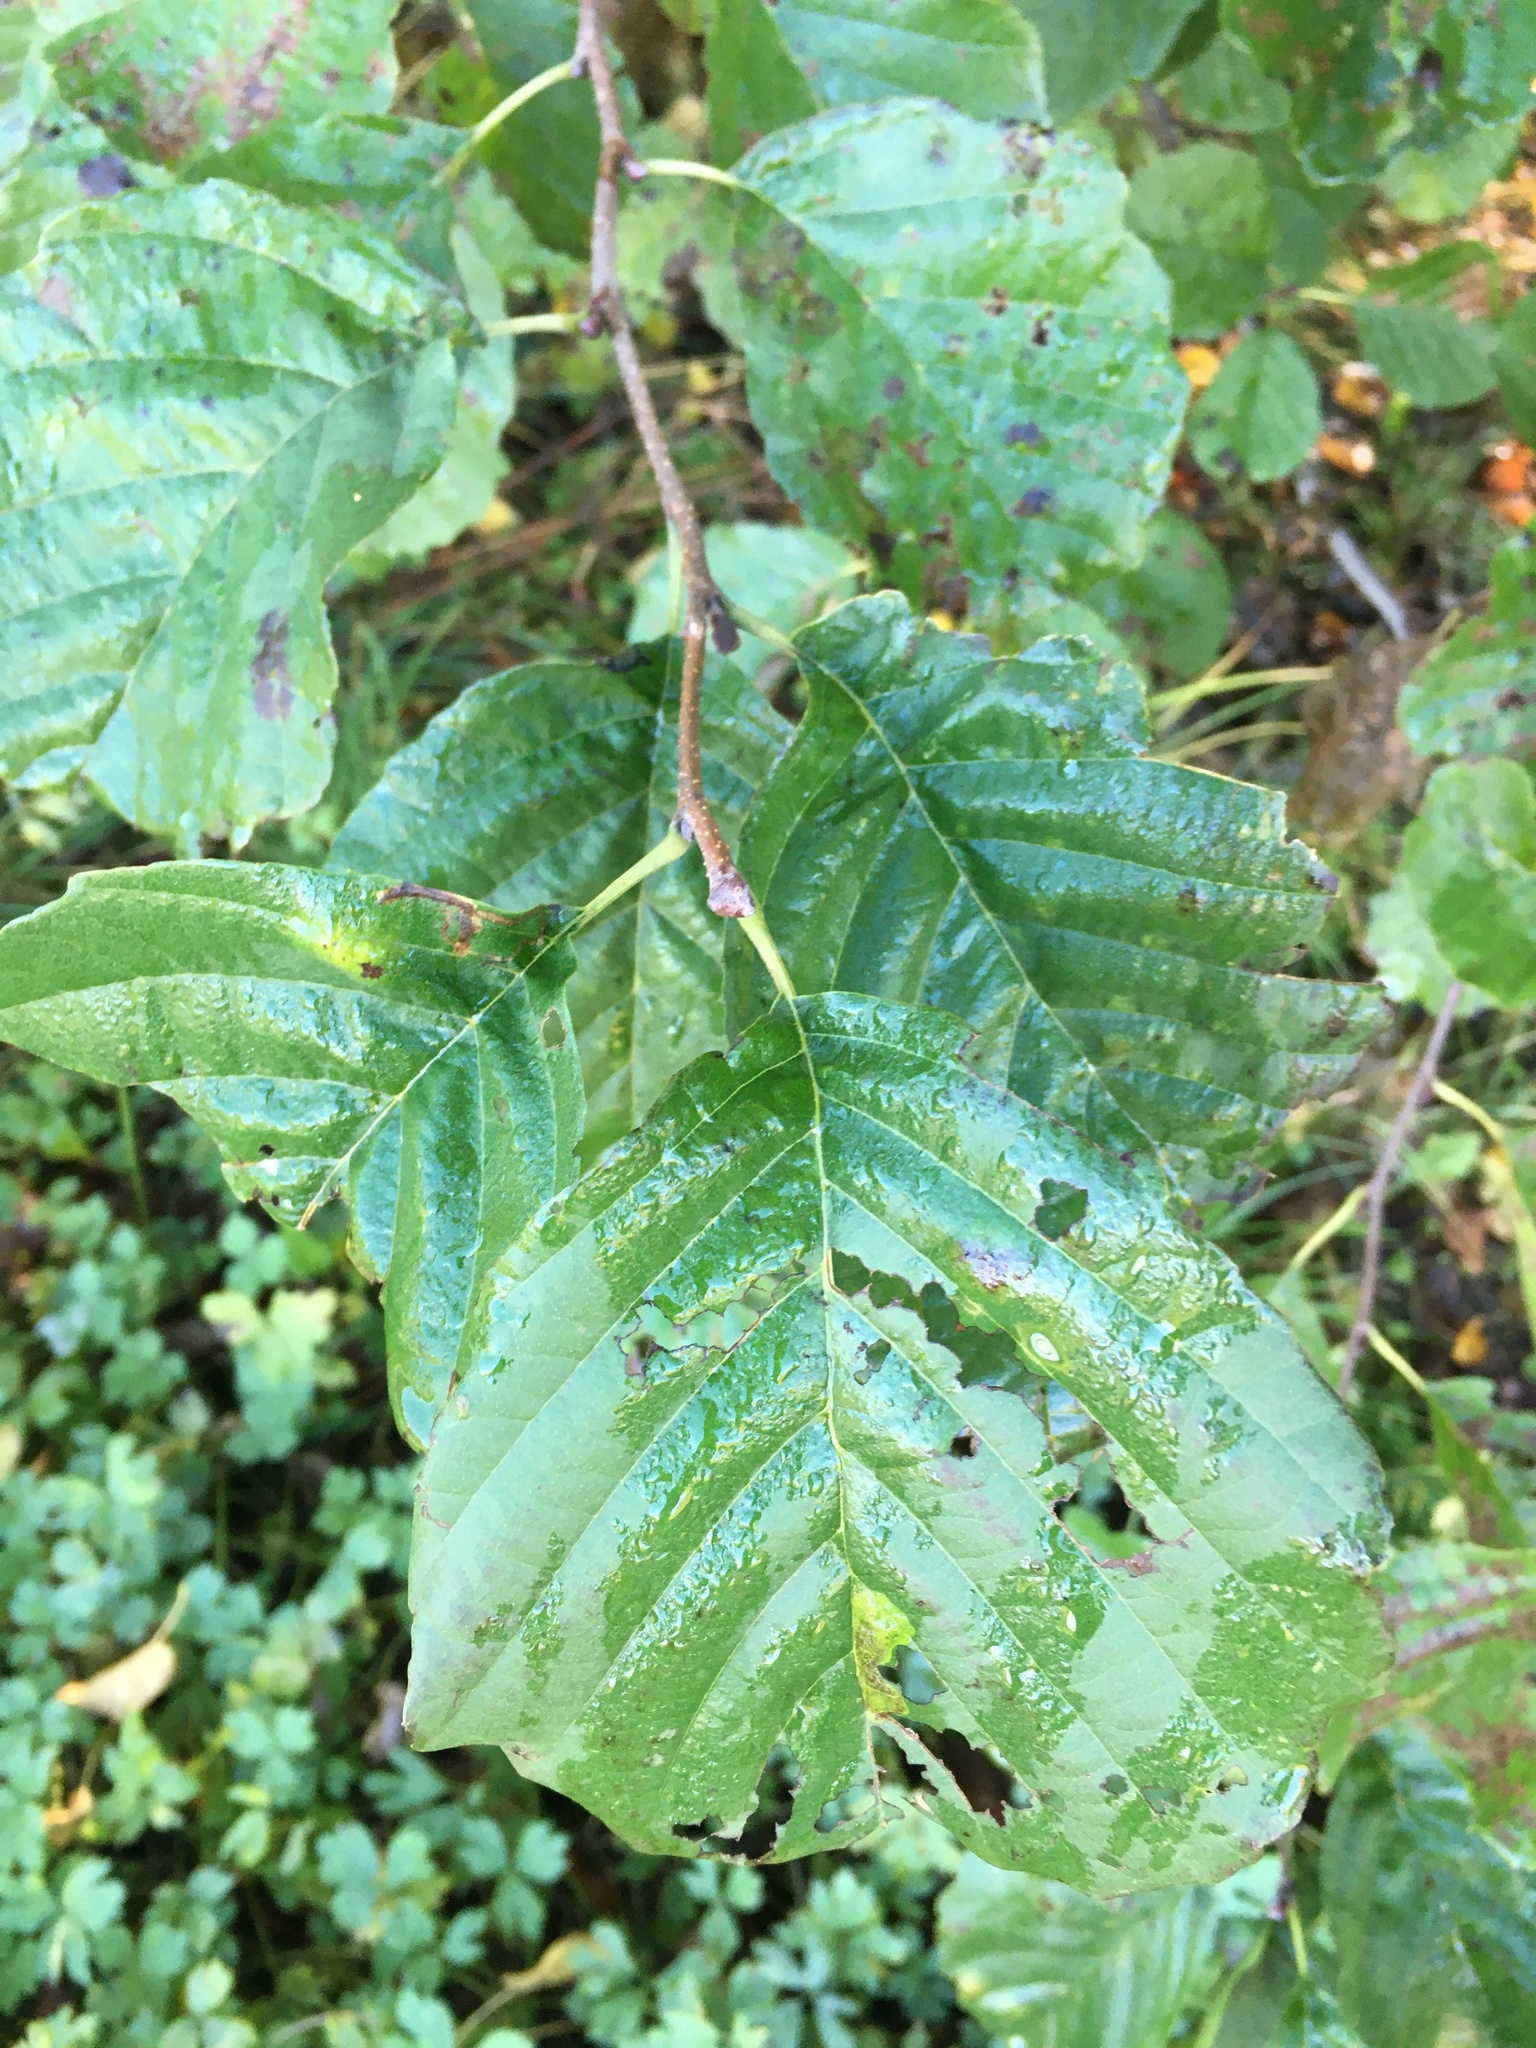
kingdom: Plantae
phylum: Tracheophyta
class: Magnoliopsida
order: Fagales
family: Betulaceae
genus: Alnus
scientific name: Alnus glutinosa
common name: Black alder
